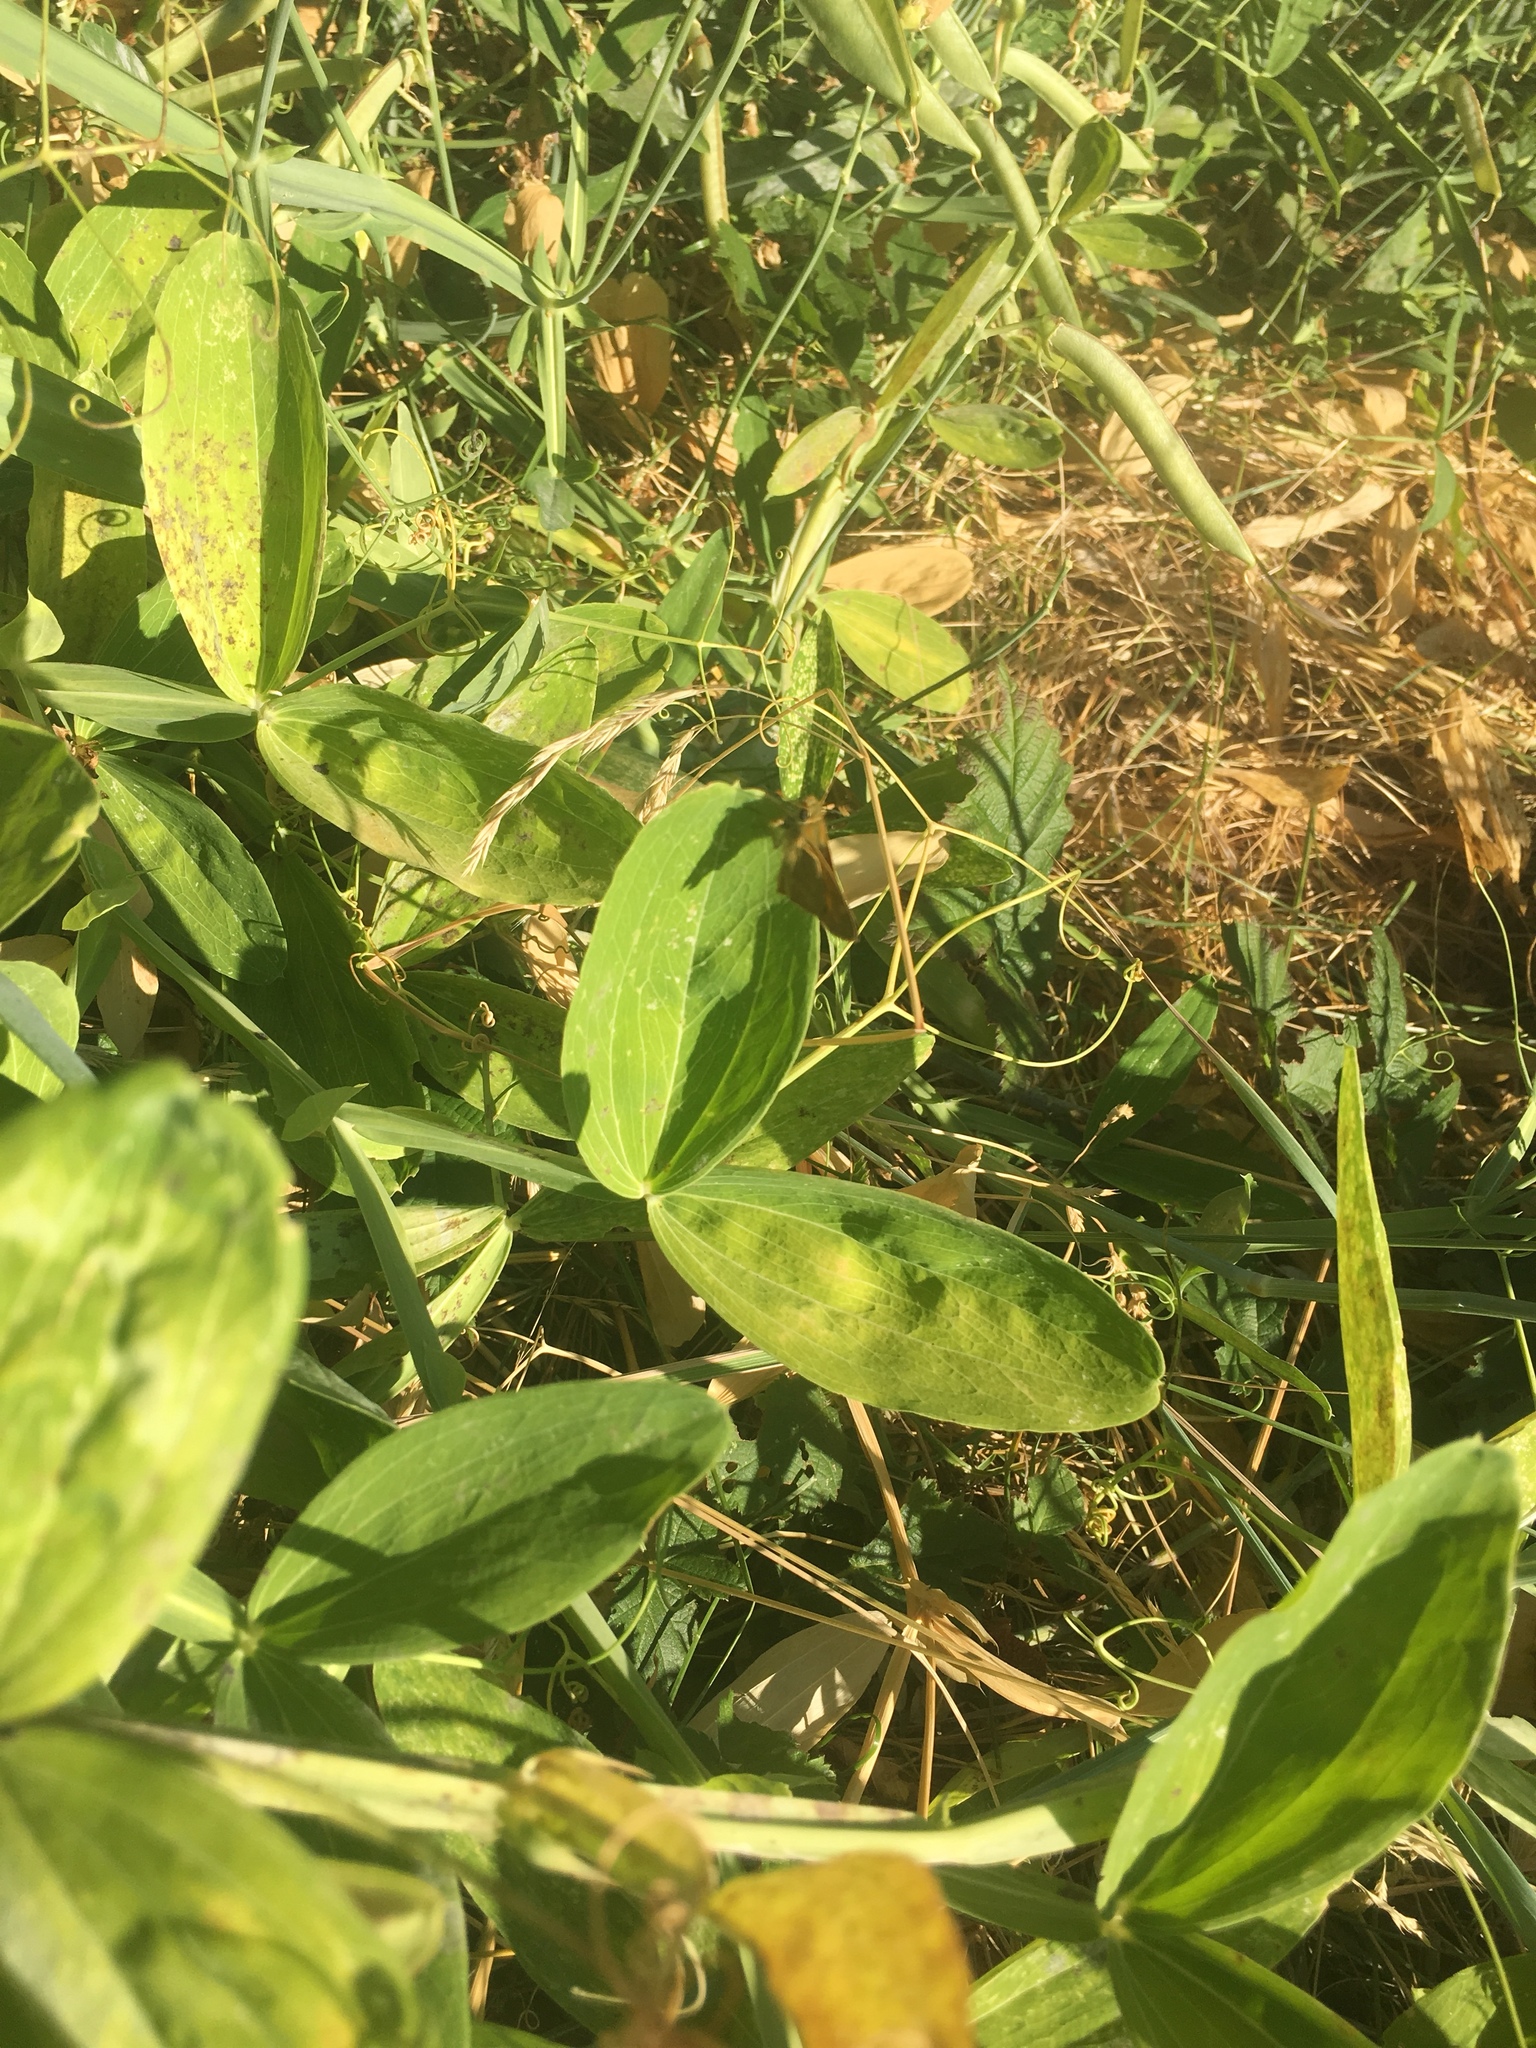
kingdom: Plantae
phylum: Tracheophyta
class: Magnoliopsida
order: Fabales
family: Fabaceae
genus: Lathyrus
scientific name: Lathyrus latifolius
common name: Perennial pea
